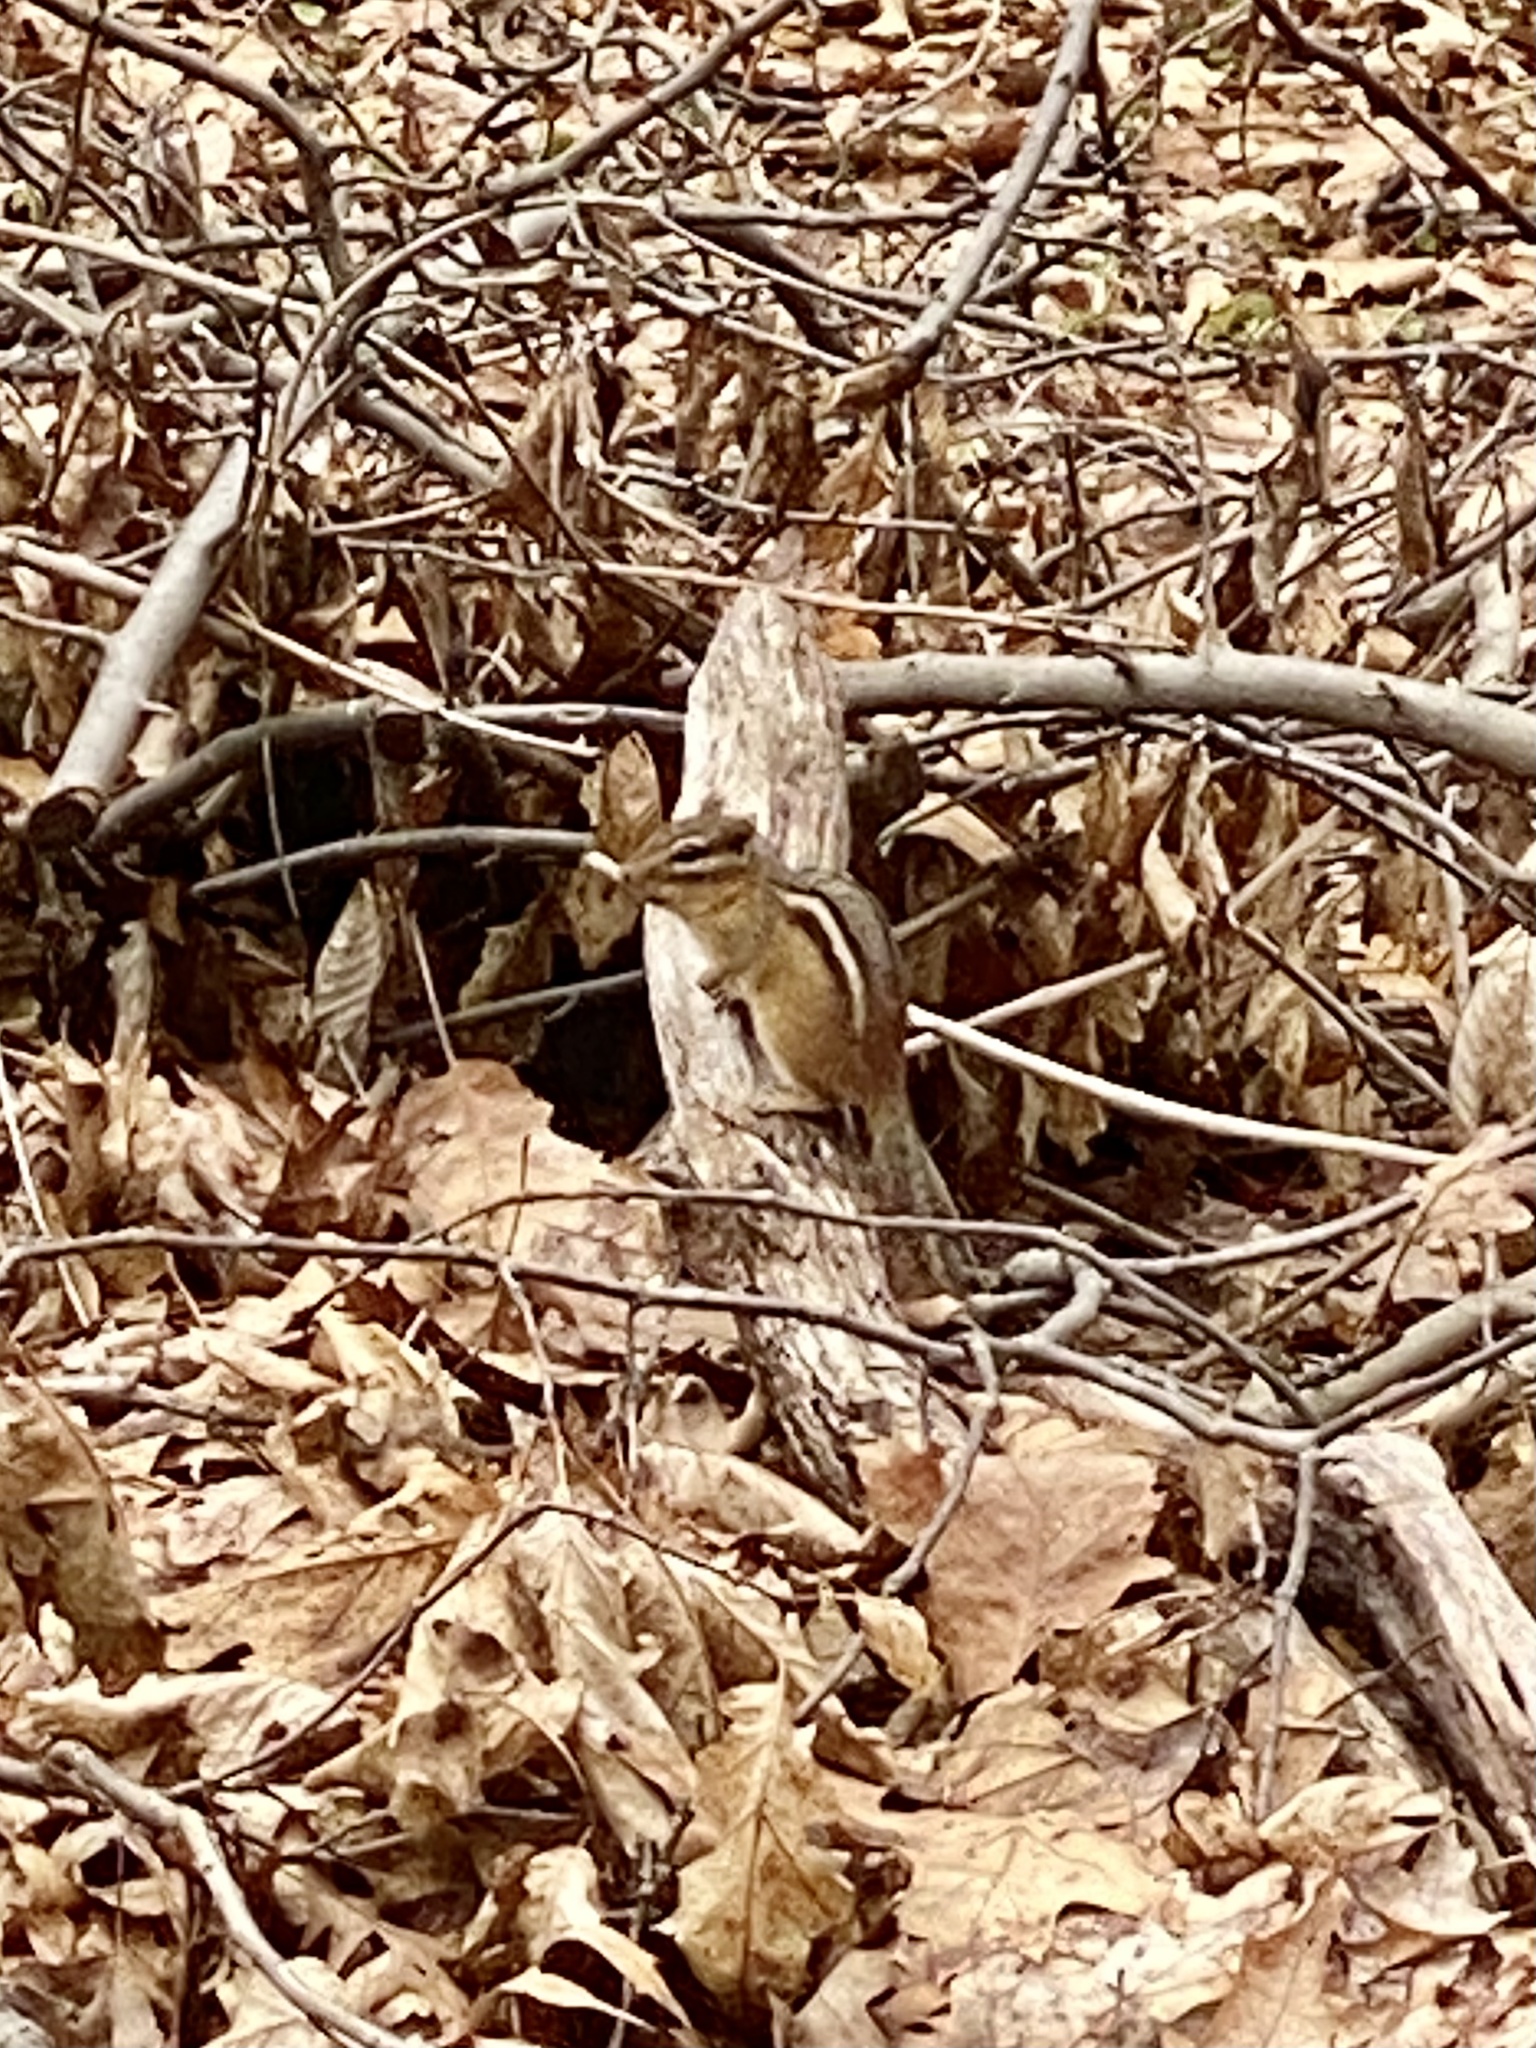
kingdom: Animalia
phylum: Chordata
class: Mammalia
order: Rodentia
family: Sciuridae
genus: Tamias
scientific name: Tamias striatus
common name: Eastern chipmunk
